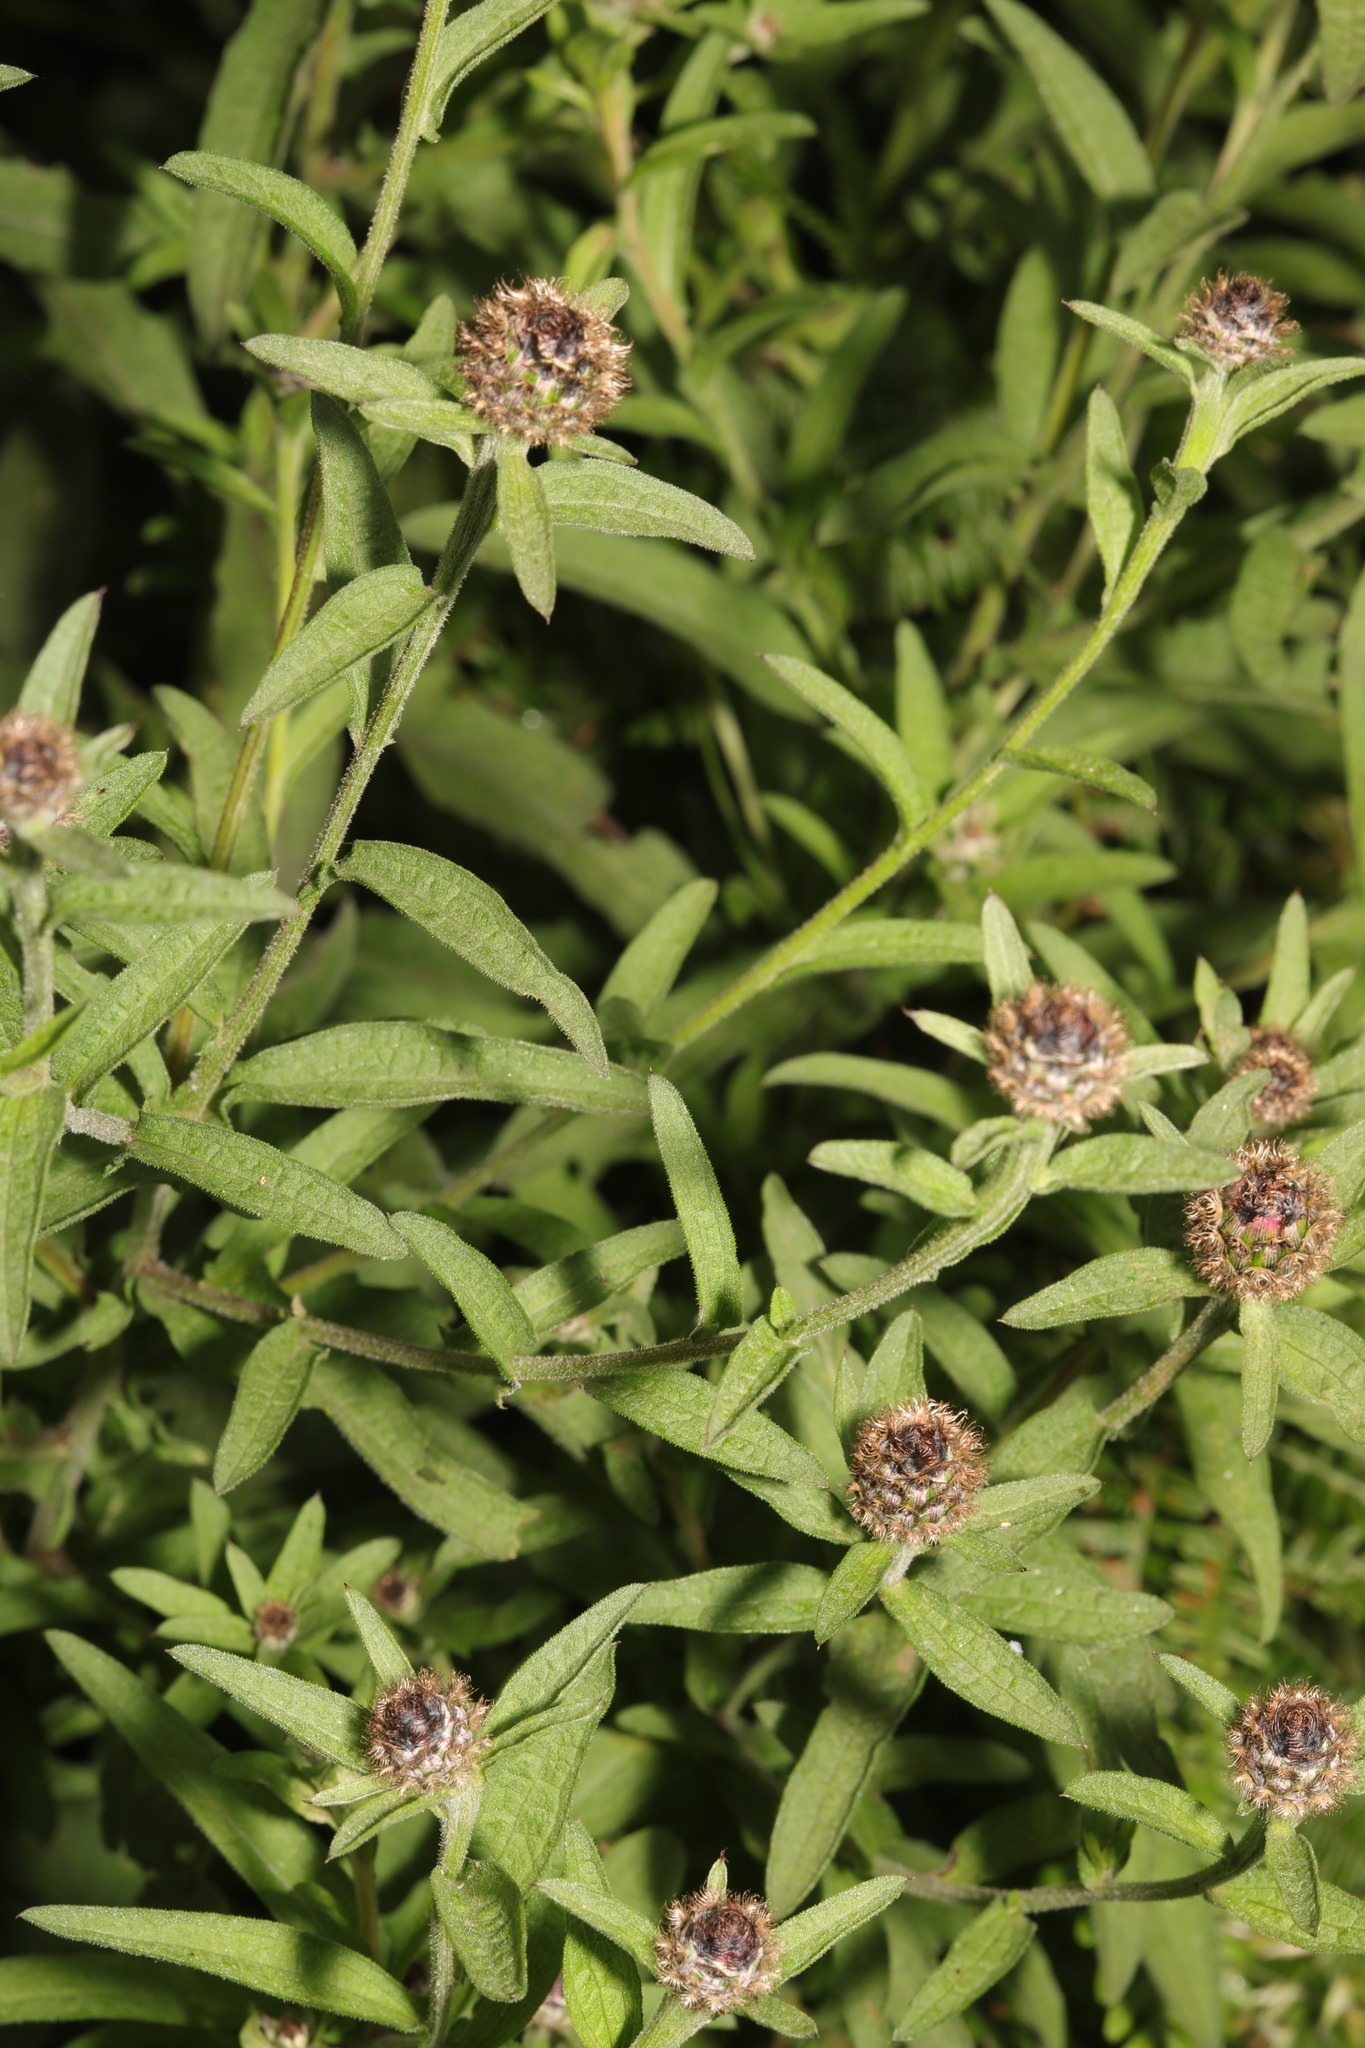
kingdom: Plantae
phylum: Tracheophyta
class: Magnoliopsida
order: Asterales
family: Asteraceae
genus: Centaurea
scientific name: Centaurea nigra
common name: Lesser knapweed
